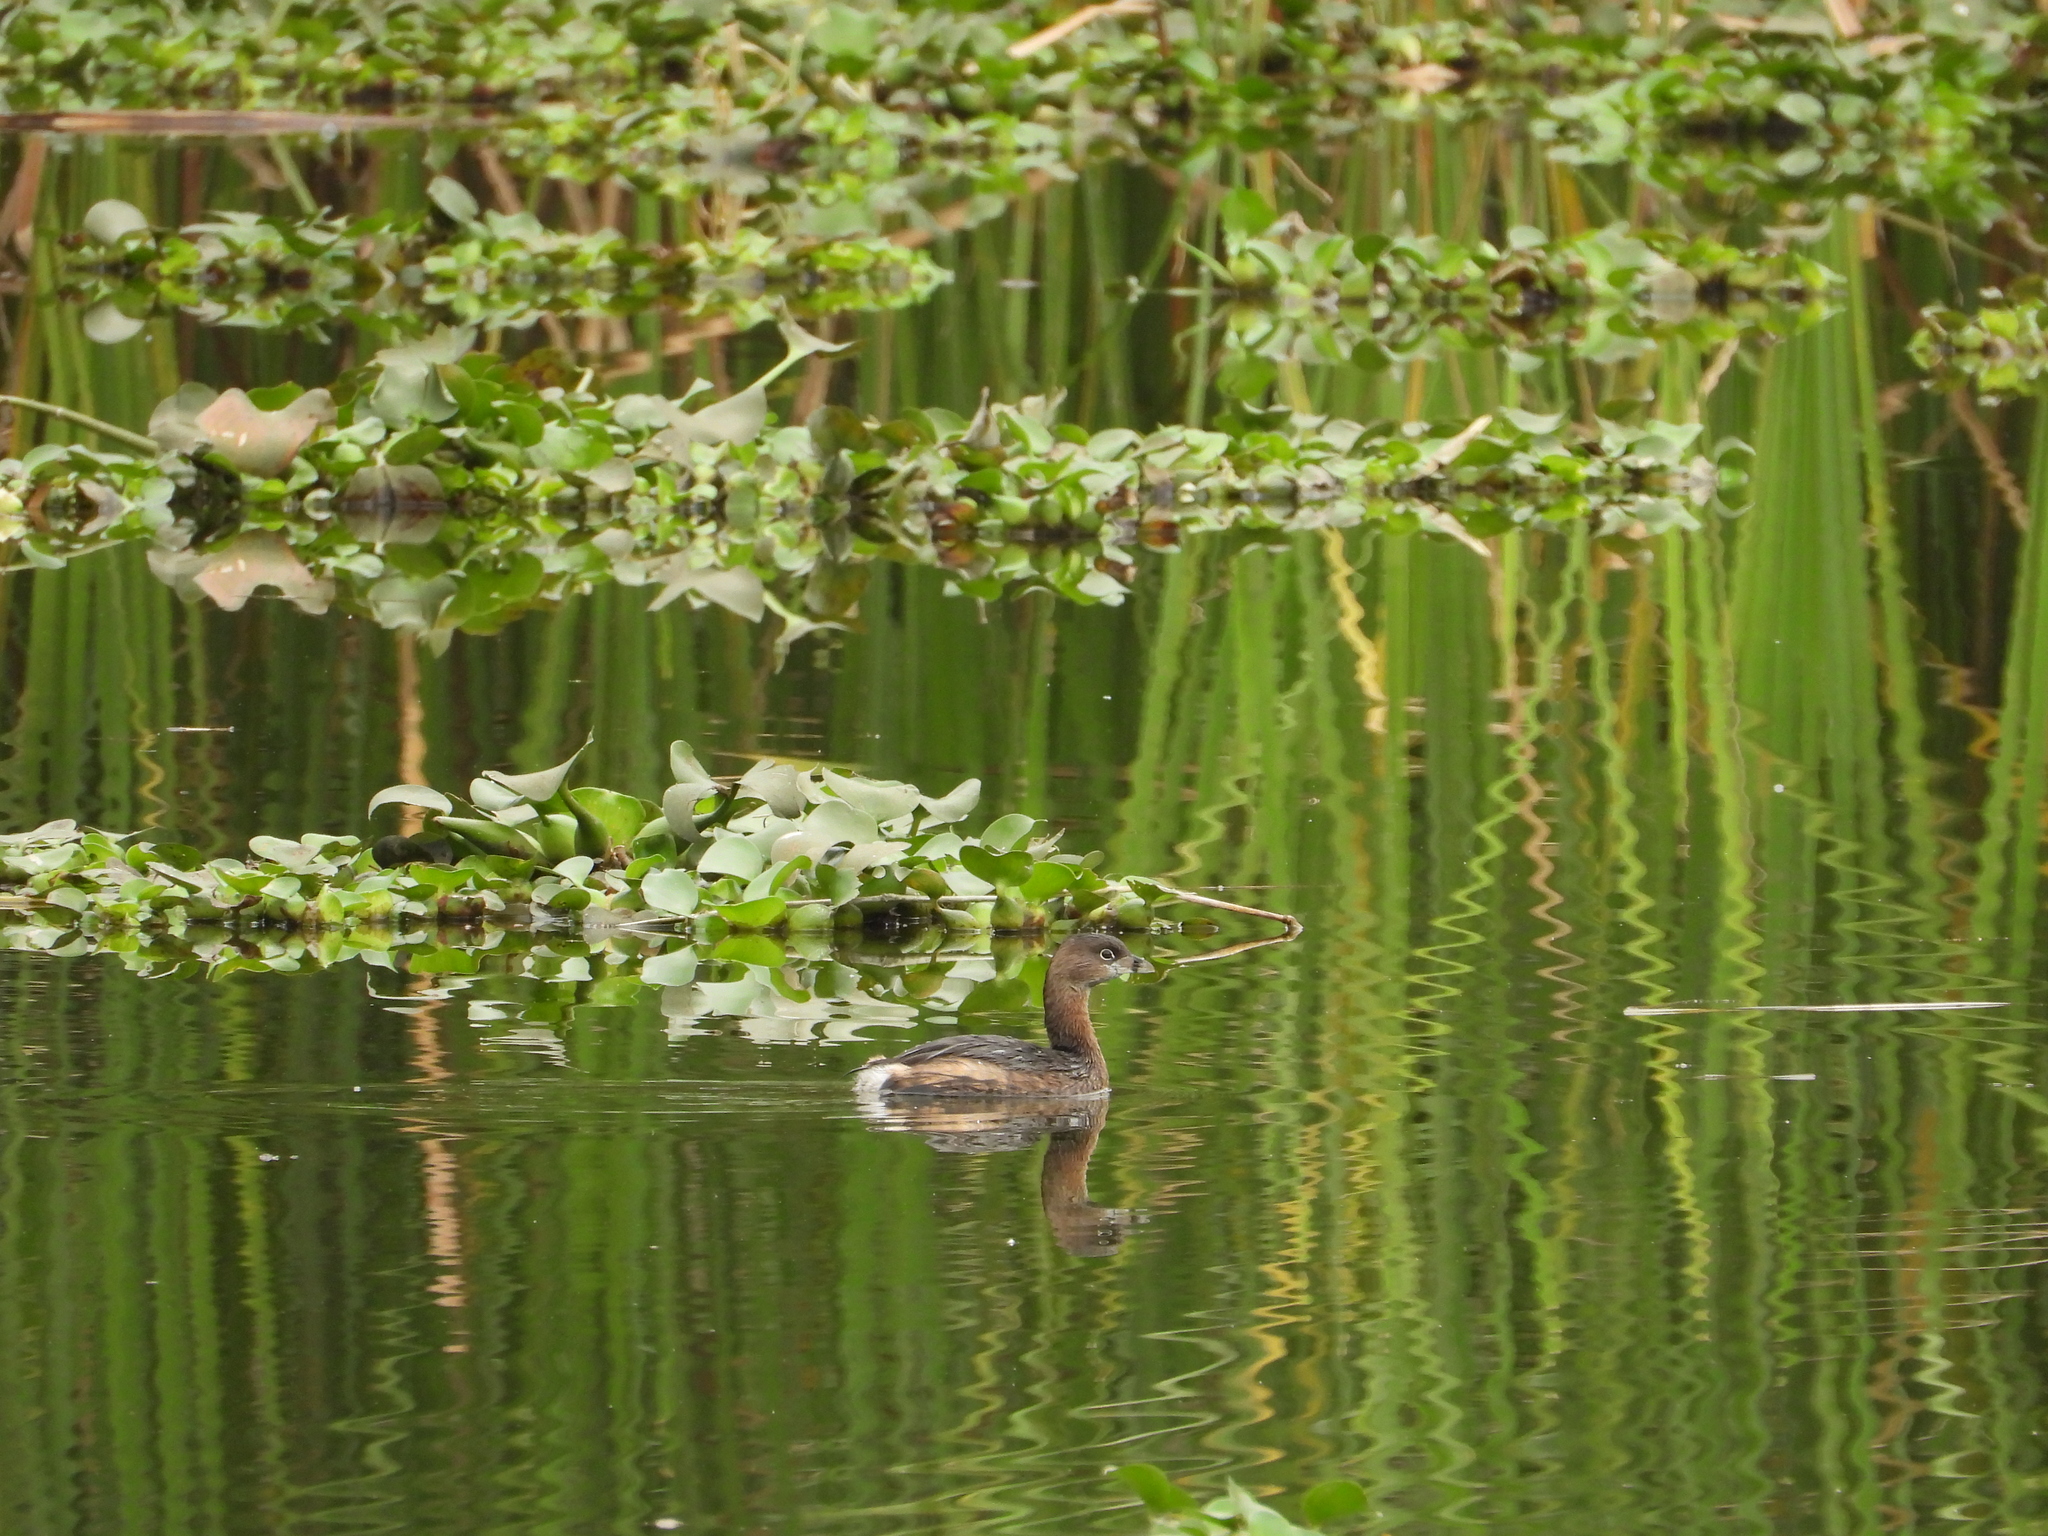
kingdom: Animalia
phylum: Chordata
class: Aves
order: Podicipediformes
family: Podicipedidae
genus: Podilymbus
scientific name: Podilymbus podiceps
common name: Pied-billed grebe
